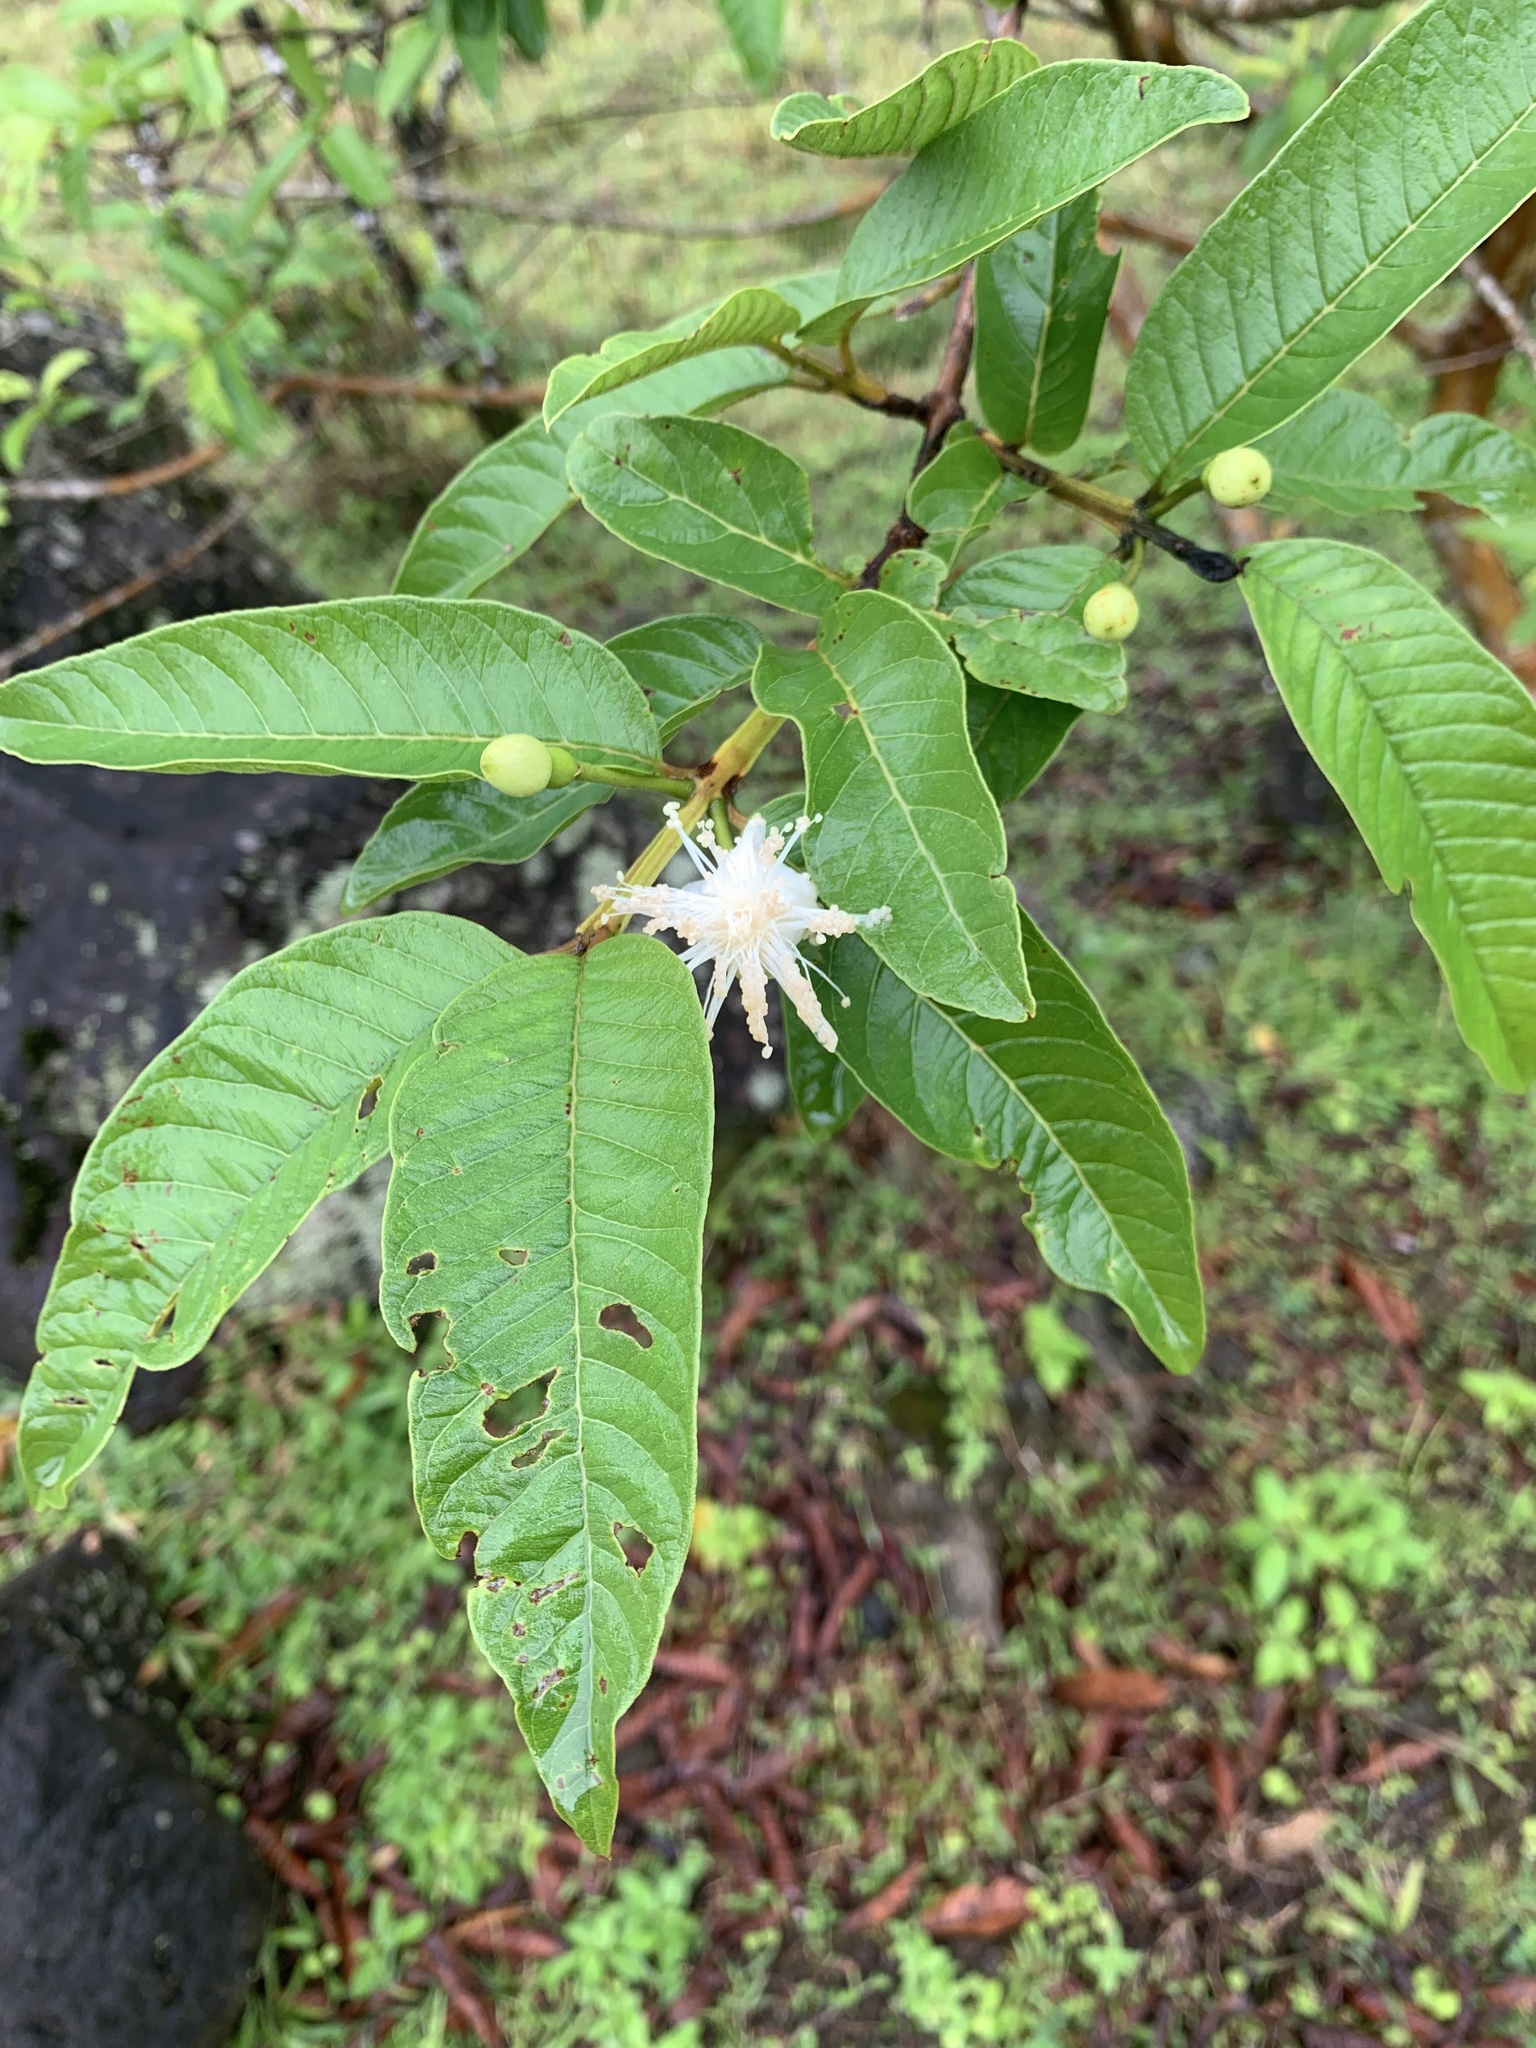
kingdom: Plantae
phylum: Tracheophyta
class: Magnoliopsida
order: Myrtales
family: Myrtaceae
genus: Psidium
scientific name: Psidium guajava
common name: Guava
